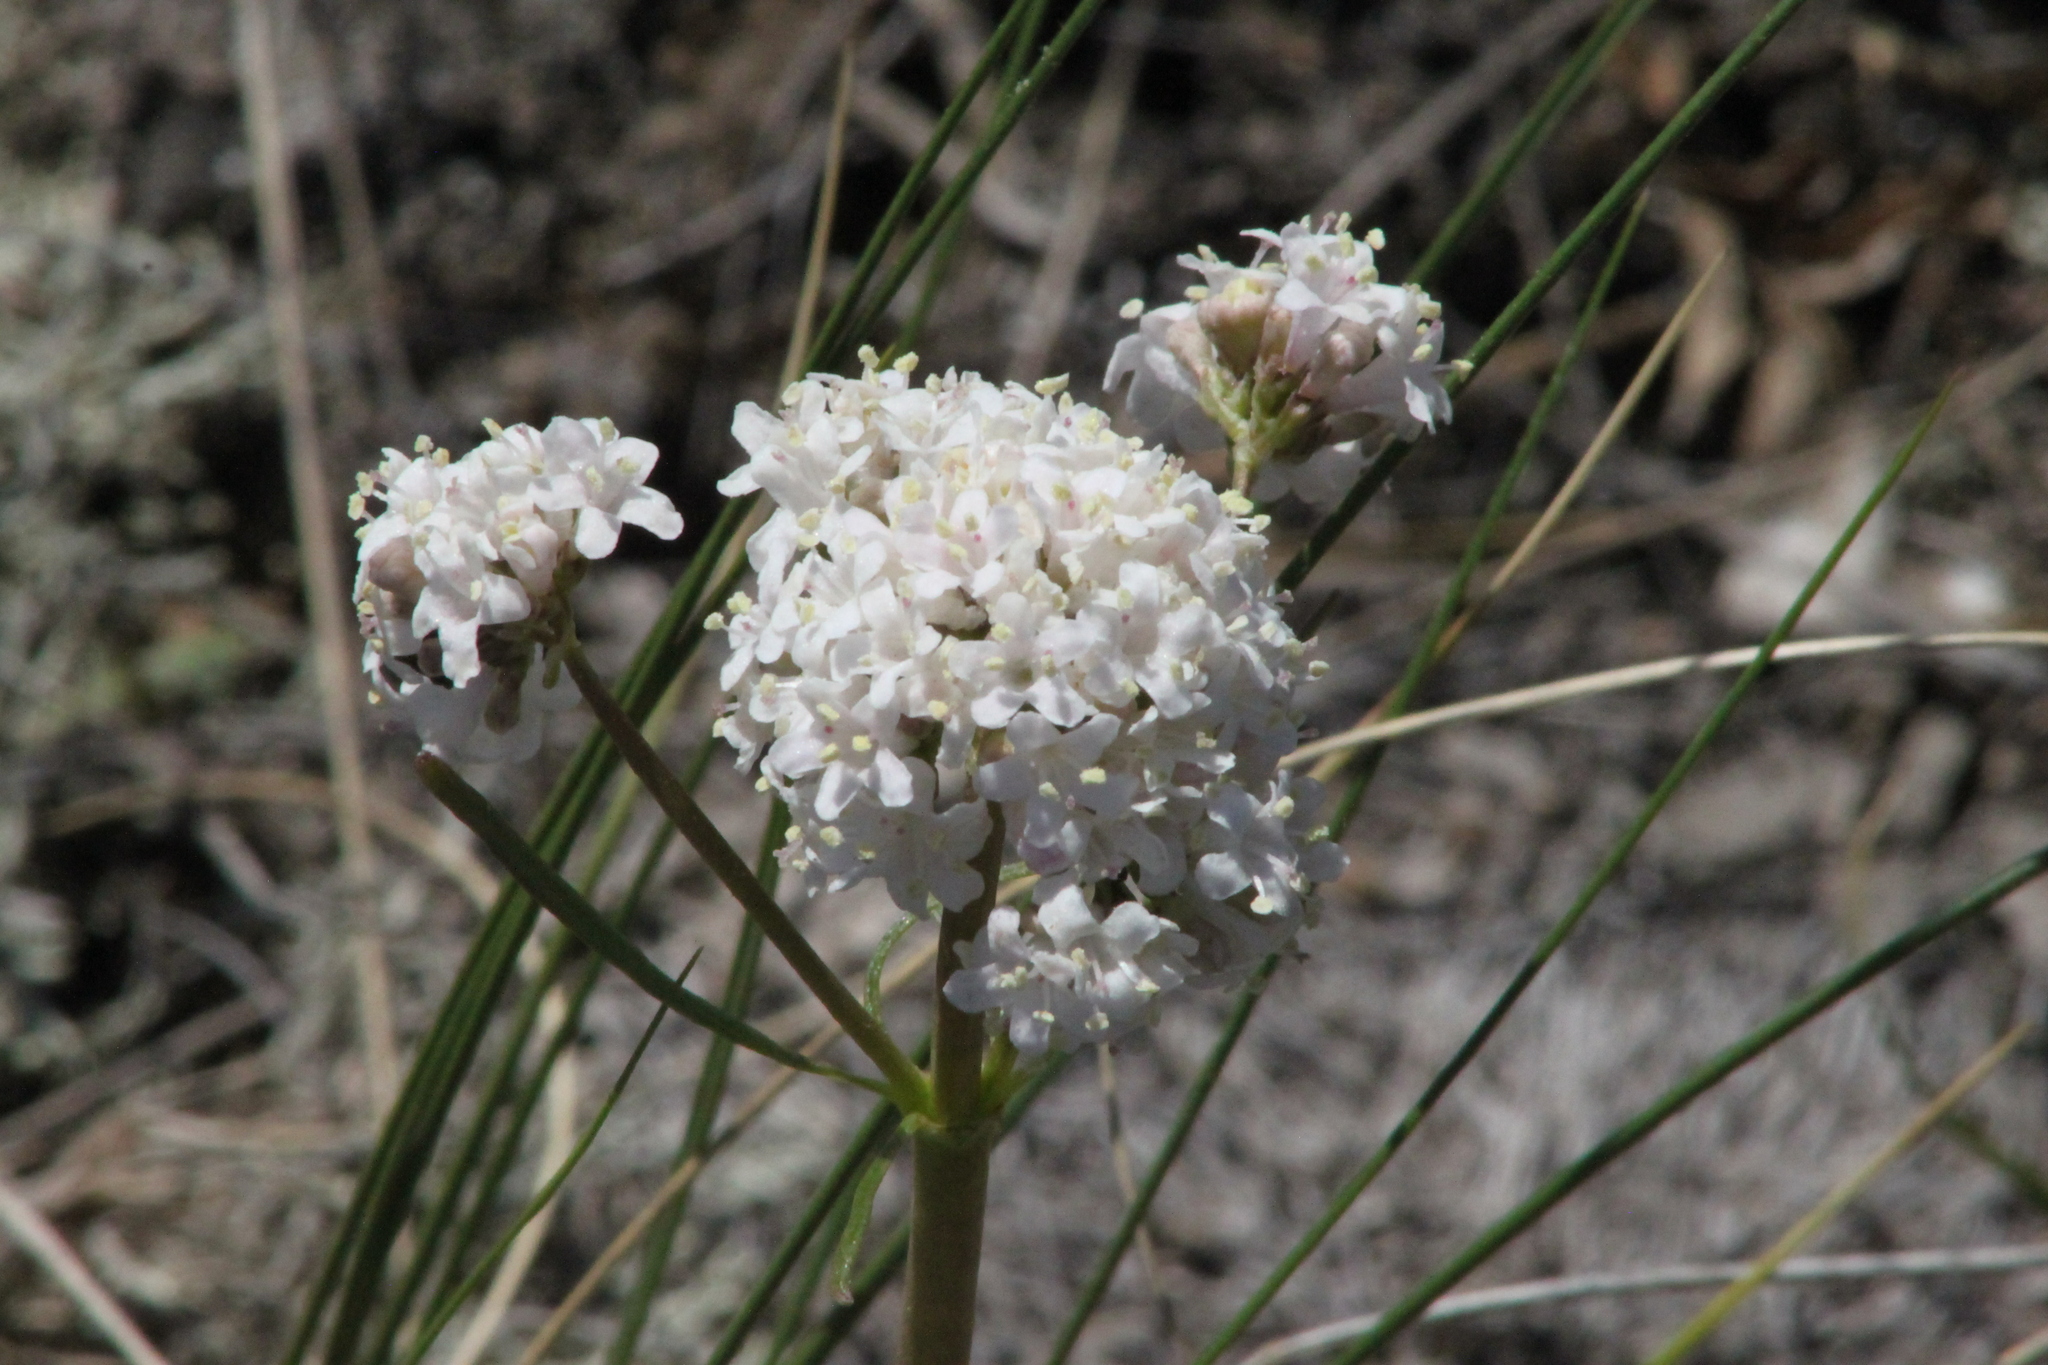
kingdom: Plantae
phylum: Tracheophyta
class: Magnoliopsida
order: Dipsacales
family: Caprifoliaceae
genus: Valeriana
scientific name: Valeriana tuberosa
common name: Tuberous valerian
